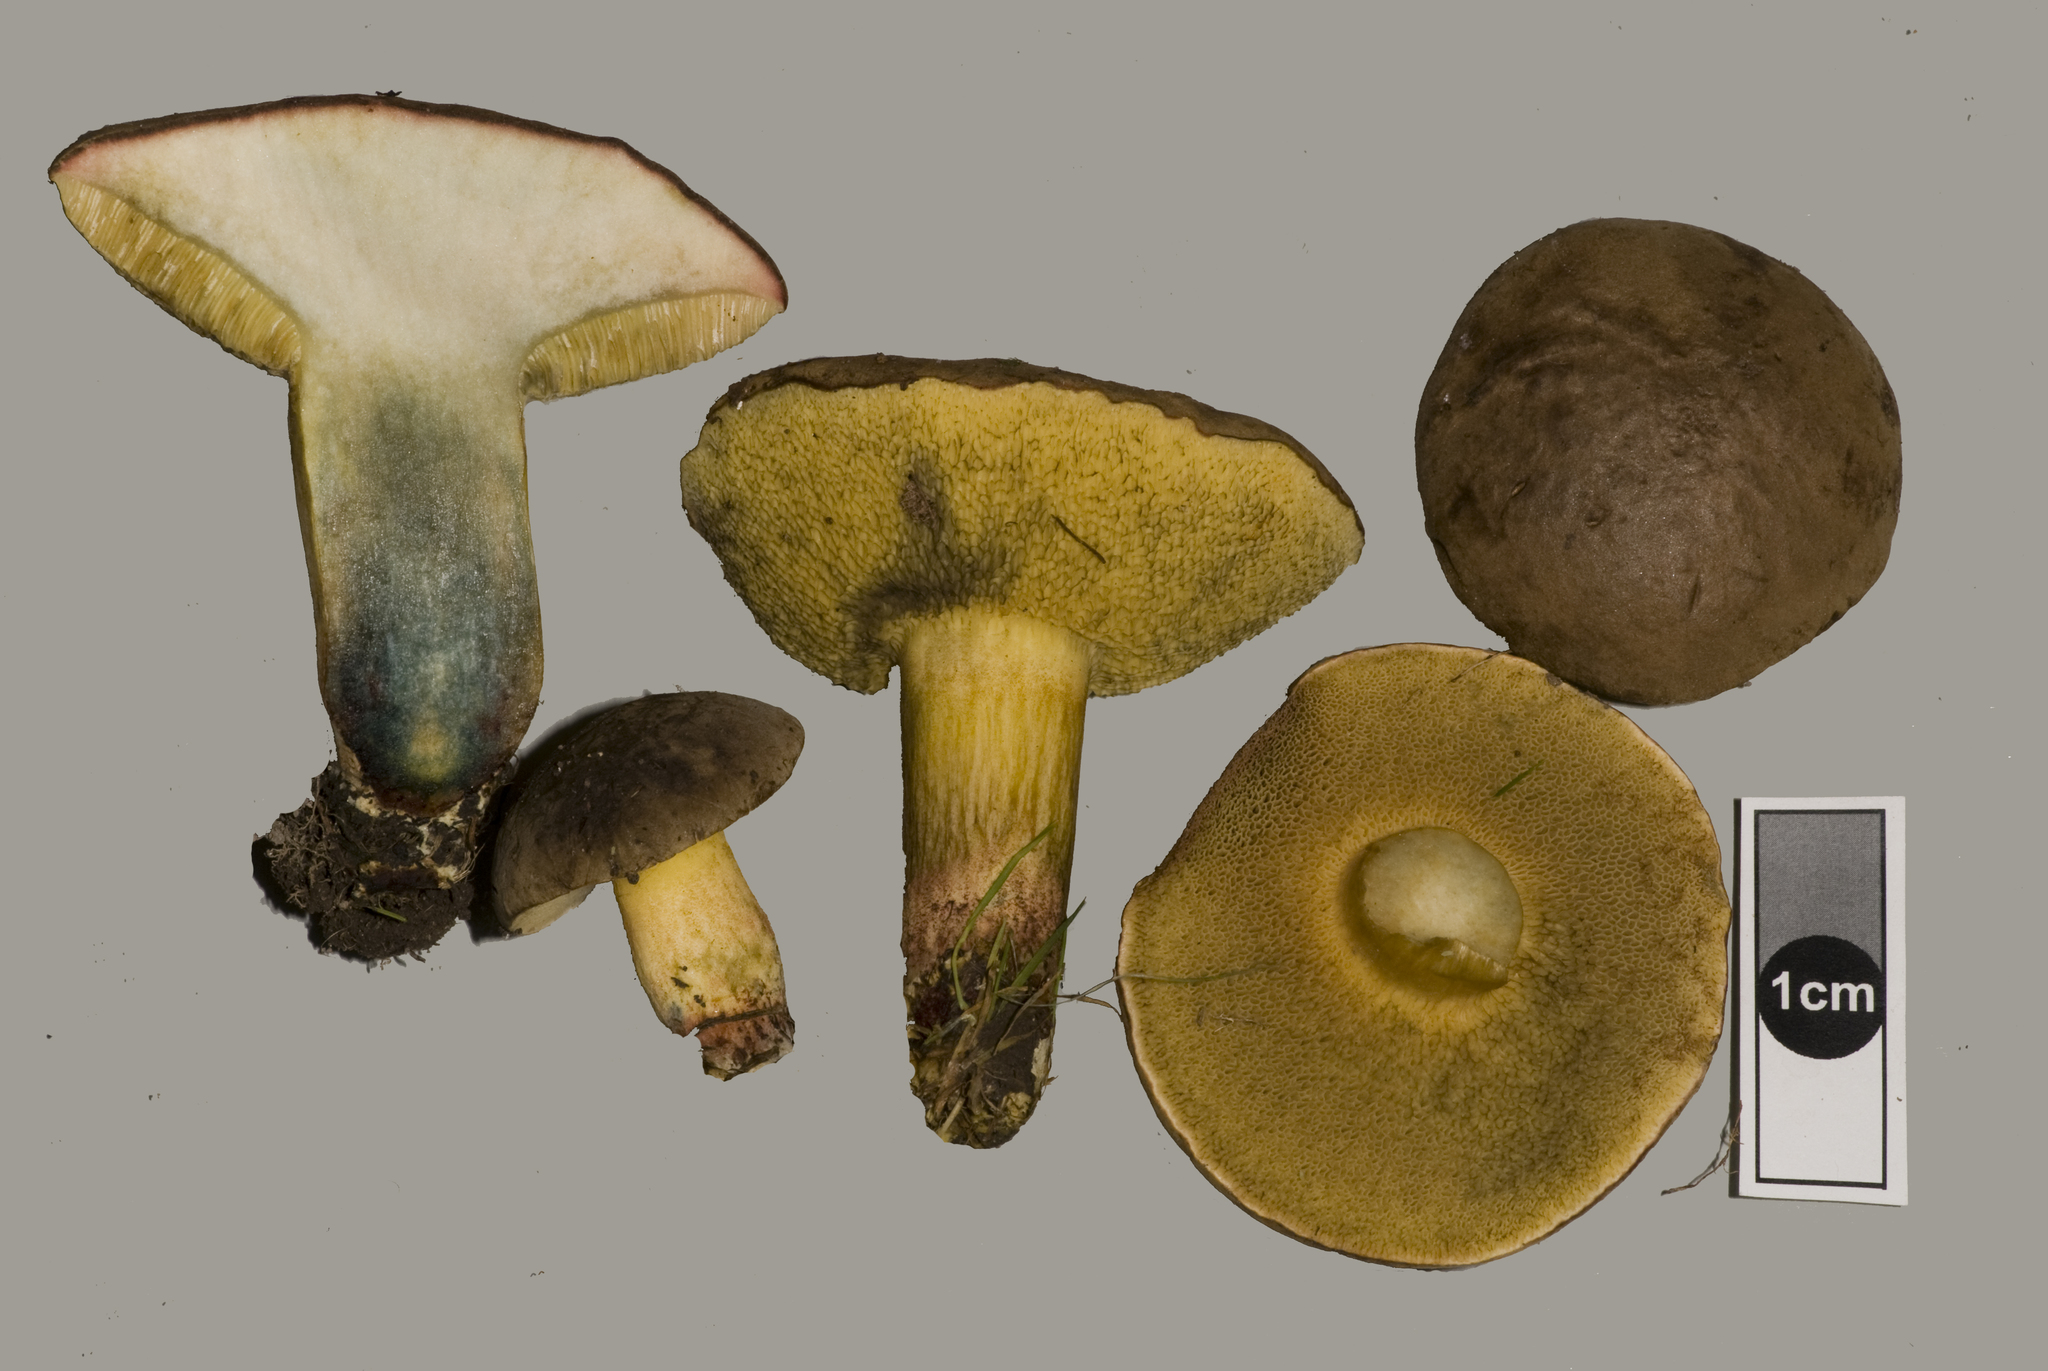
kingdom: Fungi
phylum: Basidiomycota
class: Agaricomycetes
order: Boletales
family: Boletaceae
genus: Xerocomellus
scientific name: Xerocomellus cisalpinus
